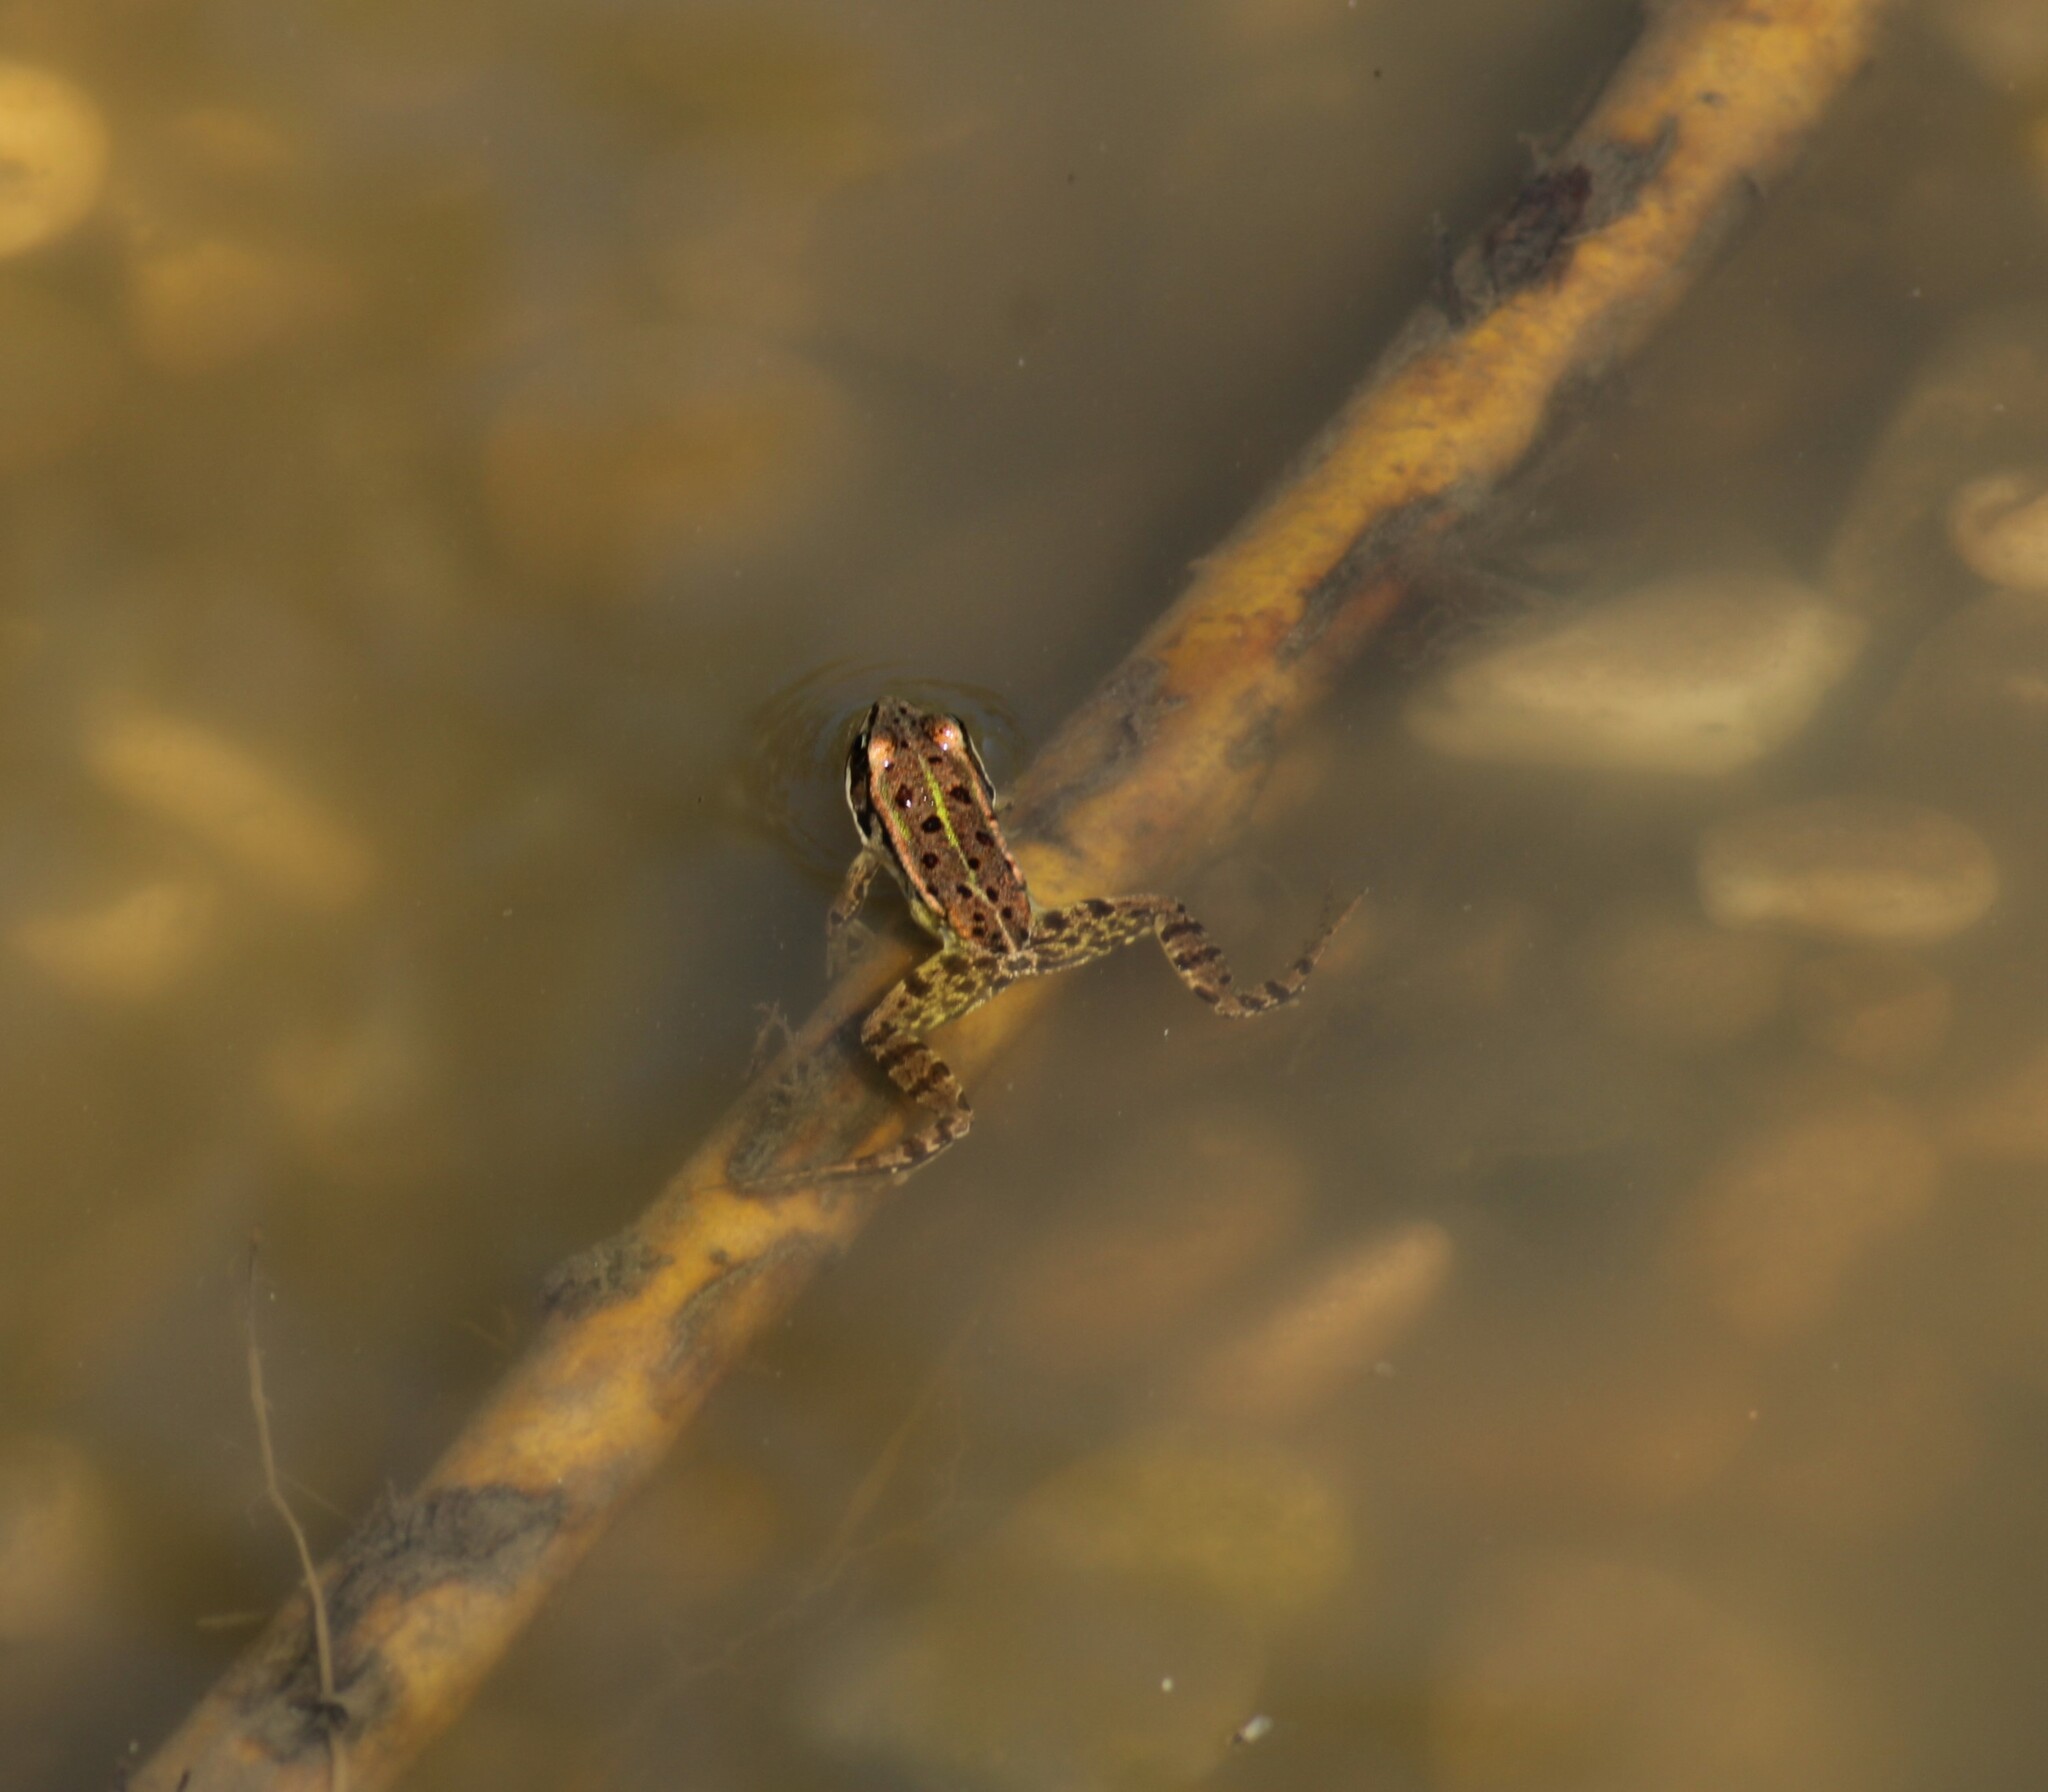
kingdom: Animalia
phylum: Chordata
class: Amphibia
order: Anura
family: Ranidae
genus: Pelophylax
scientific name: Pelophylax
